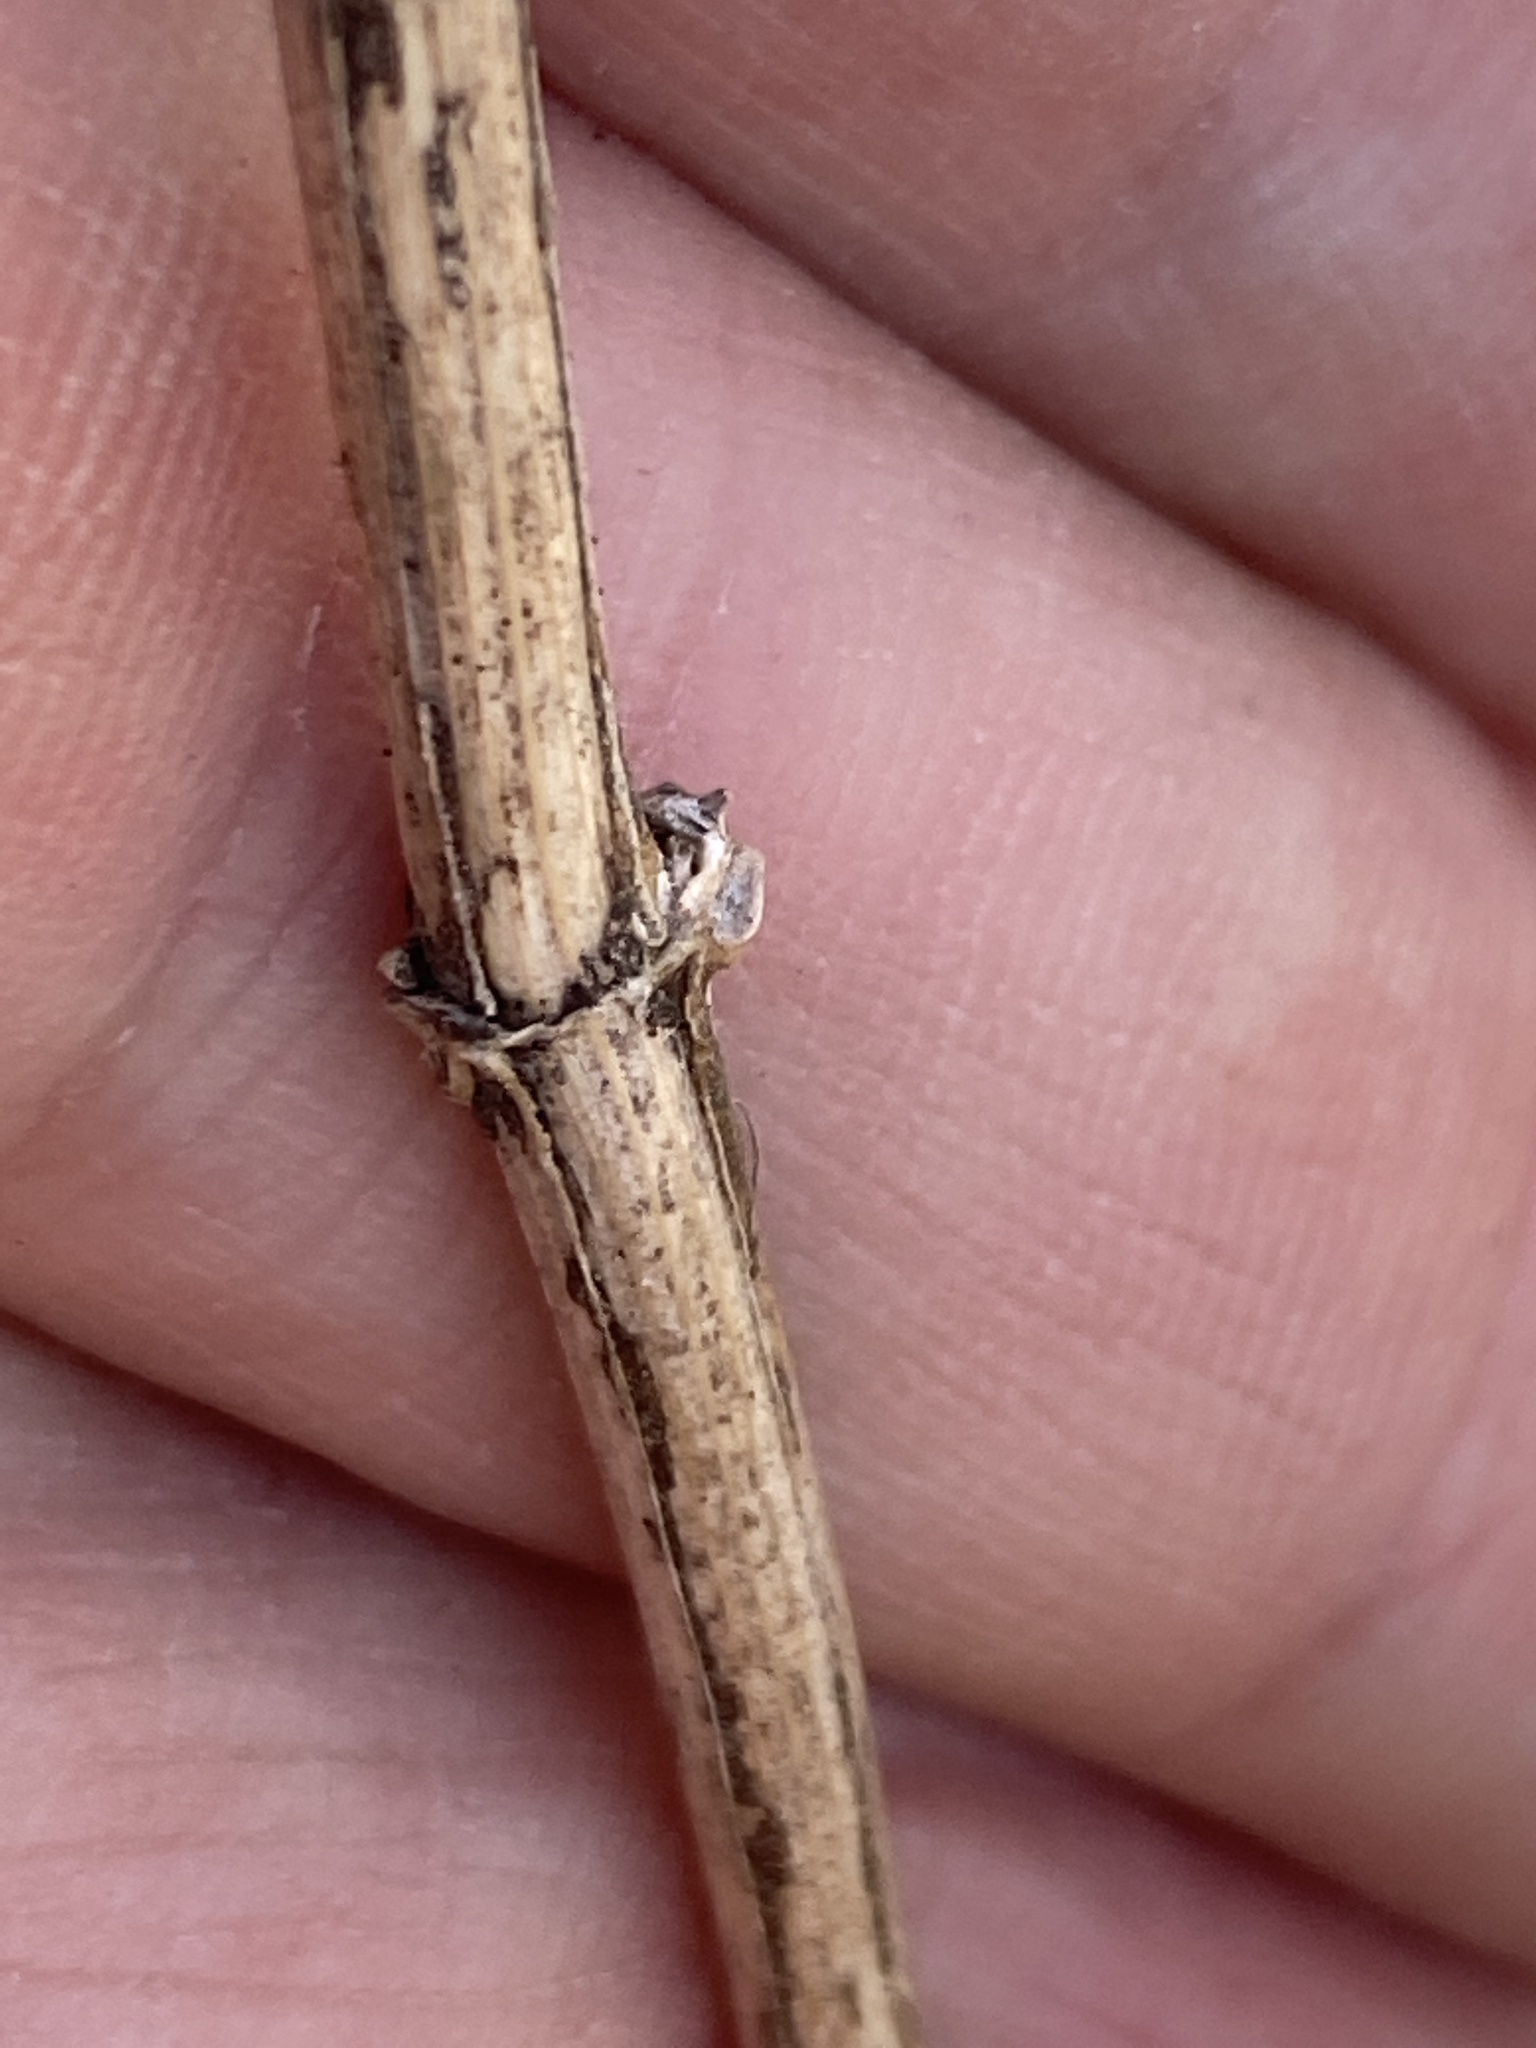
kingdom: Plantae
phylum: Tracheophyta
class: Magnoliopsida
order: Asterales
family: Asteraceae
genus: Verbesina
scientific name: Verbesina occidentalis
